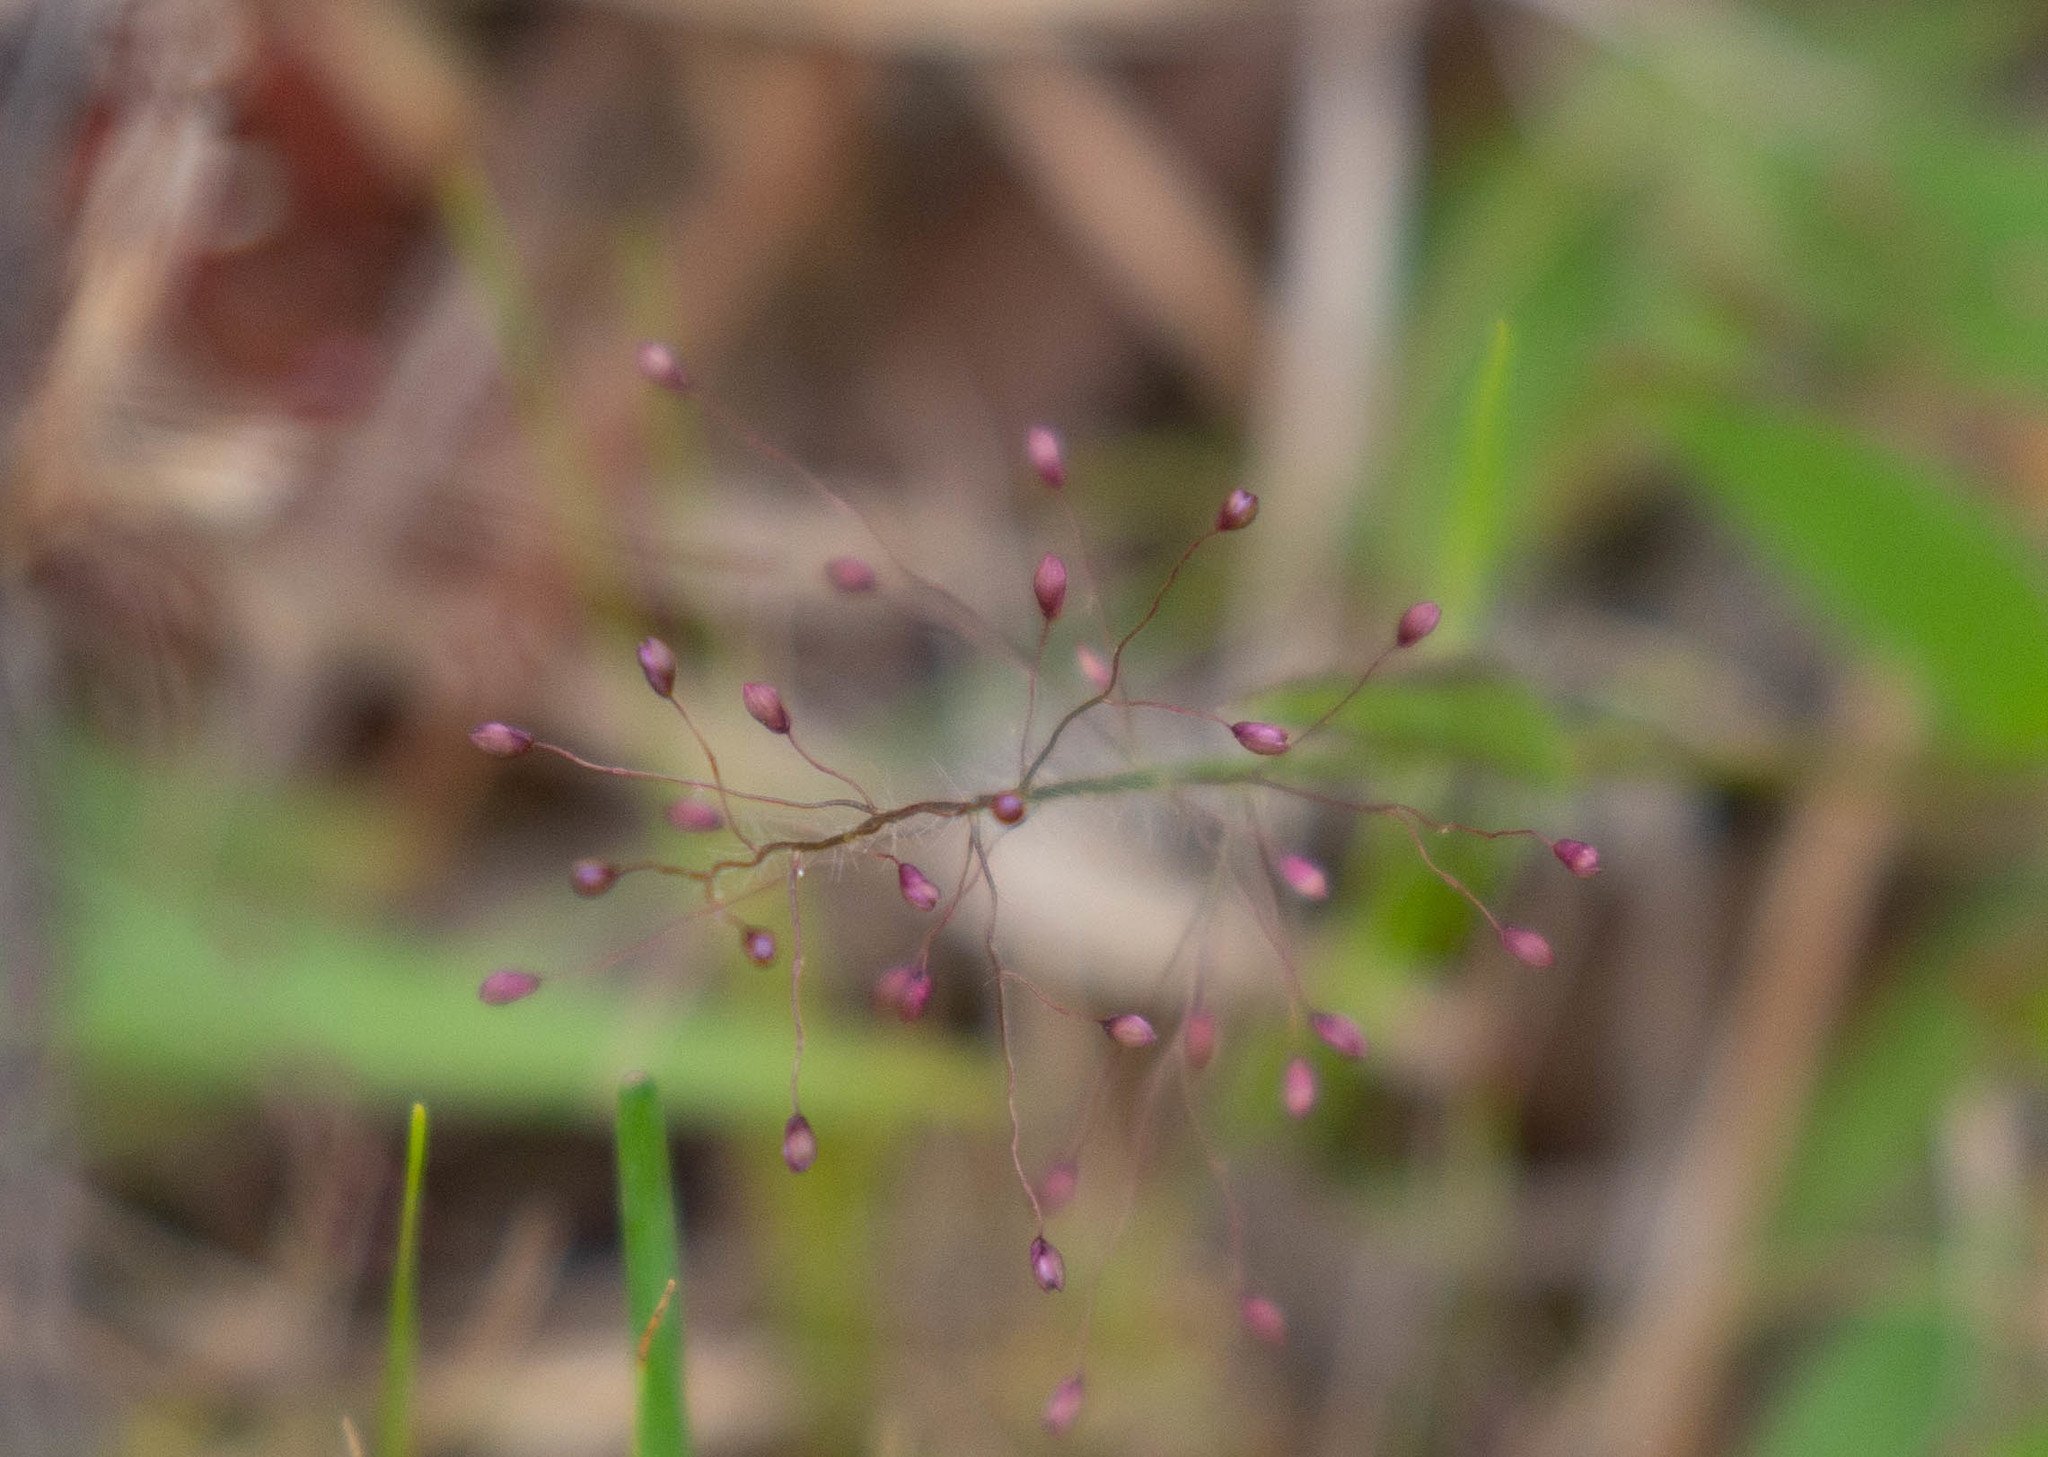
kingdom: Plantae
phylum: Tracheophyta
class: Liliopsida
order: Poales
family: Poaceae
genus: Dichanthelium
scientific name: Dichanthelium strigosum
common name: Cushion-tuft panic grass
